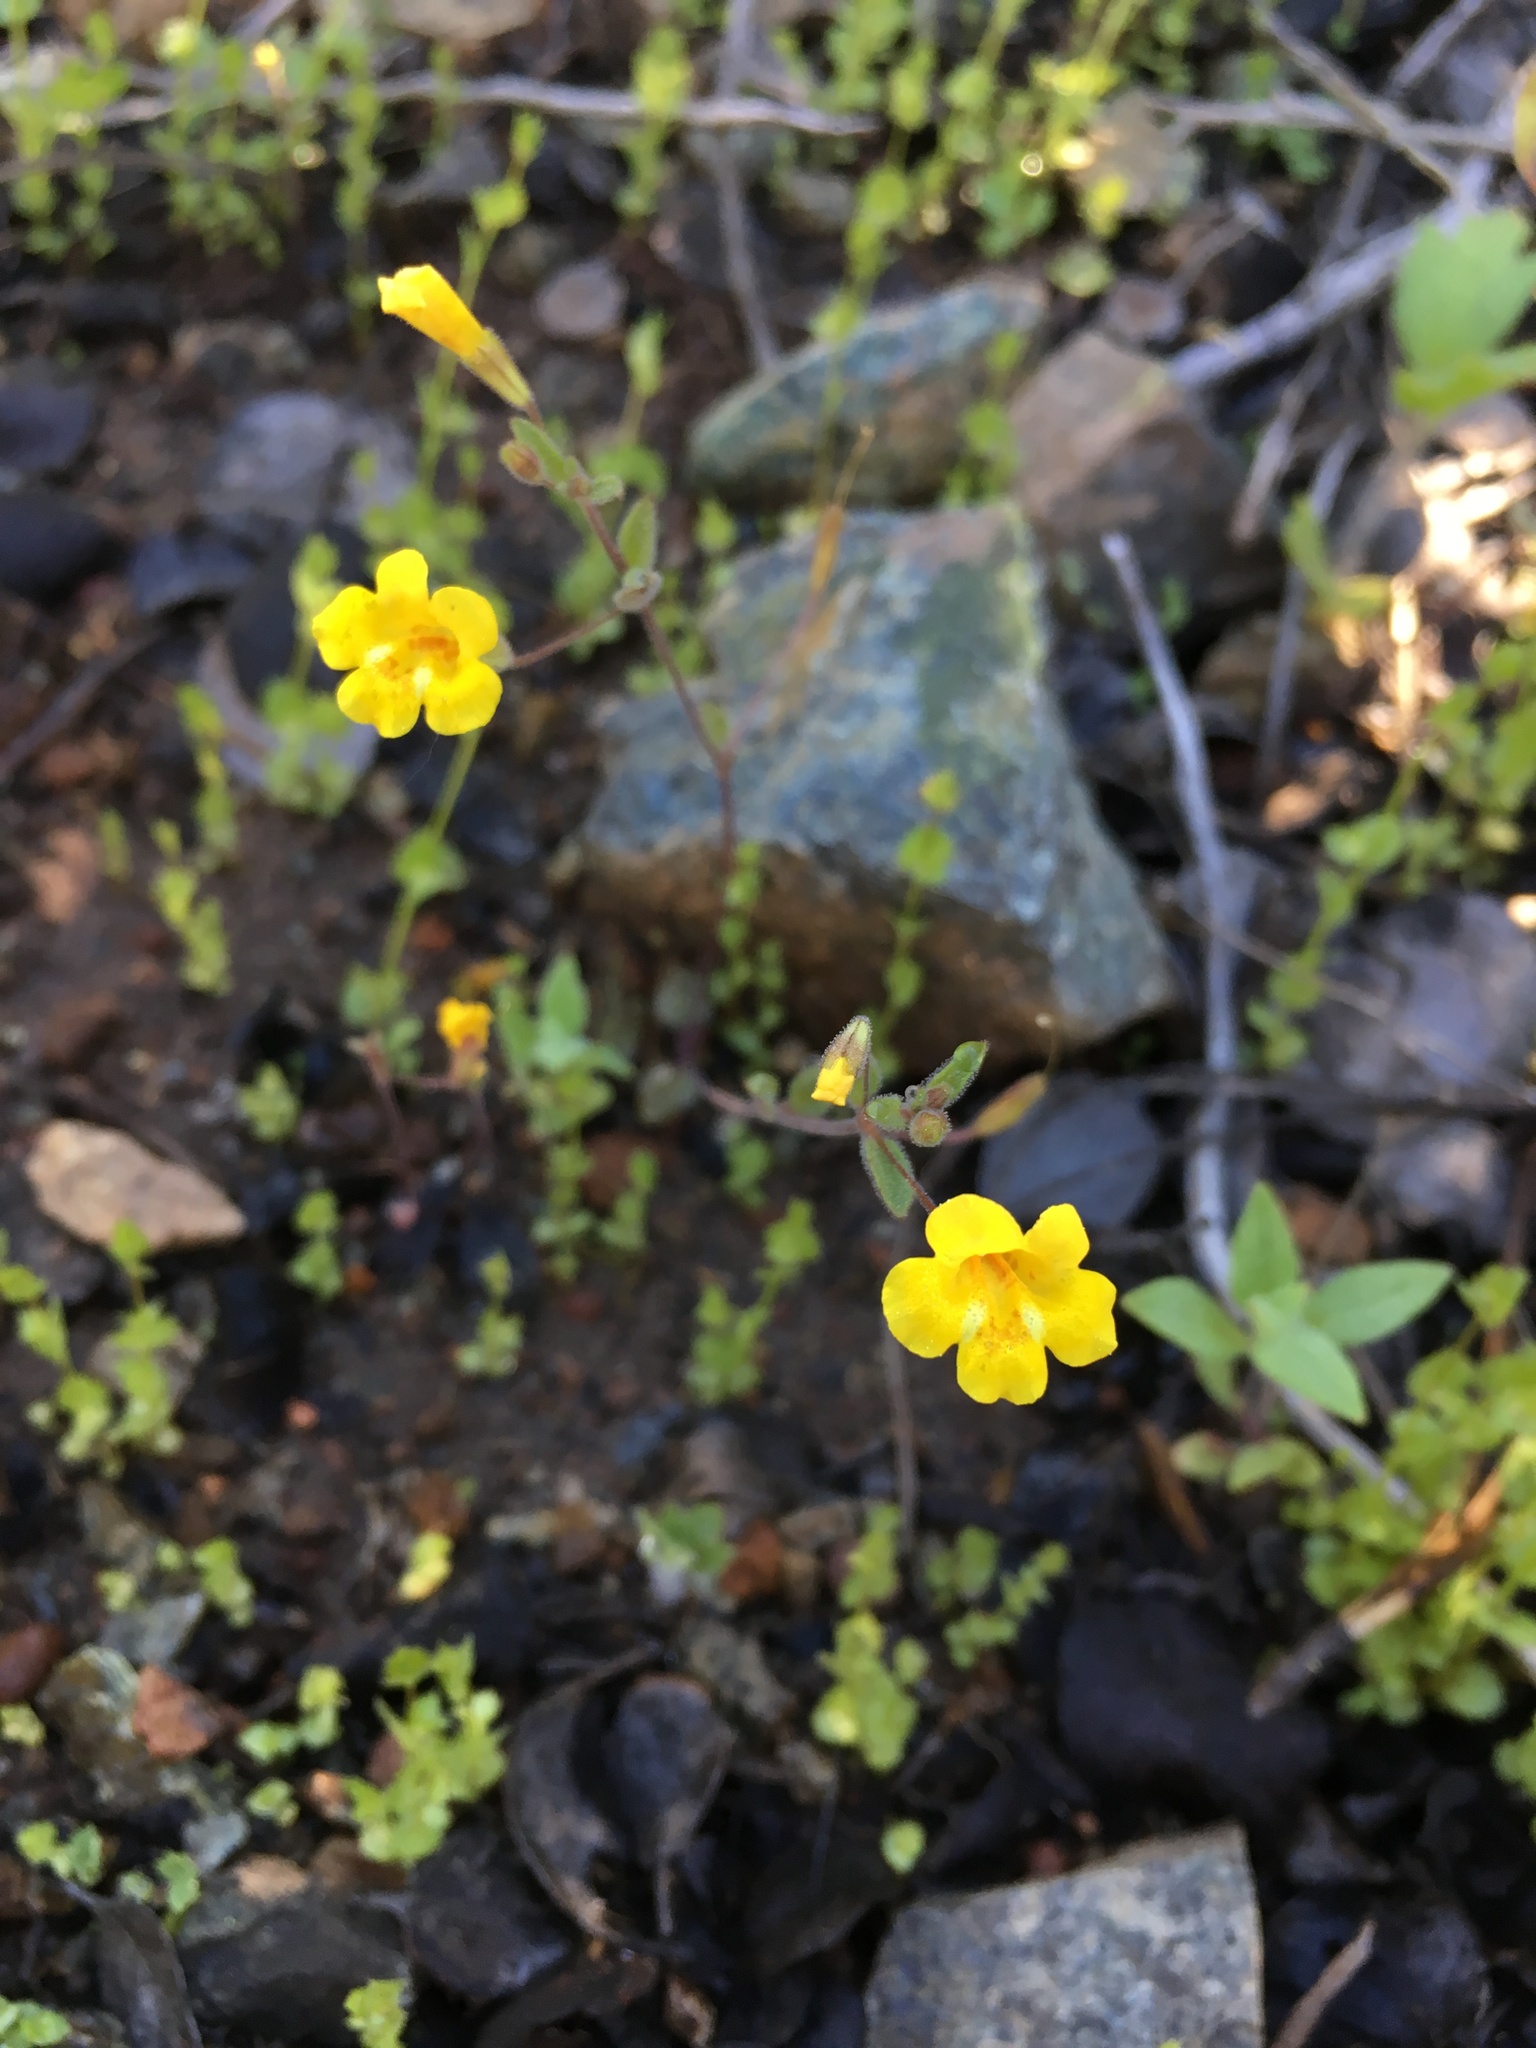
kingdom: Plantae
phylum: Tracheophyta
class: Magnoliopsida
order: Lamiales
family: Phrymaceae
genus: Erythranthe
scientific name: Erythranthe pulsiferae
